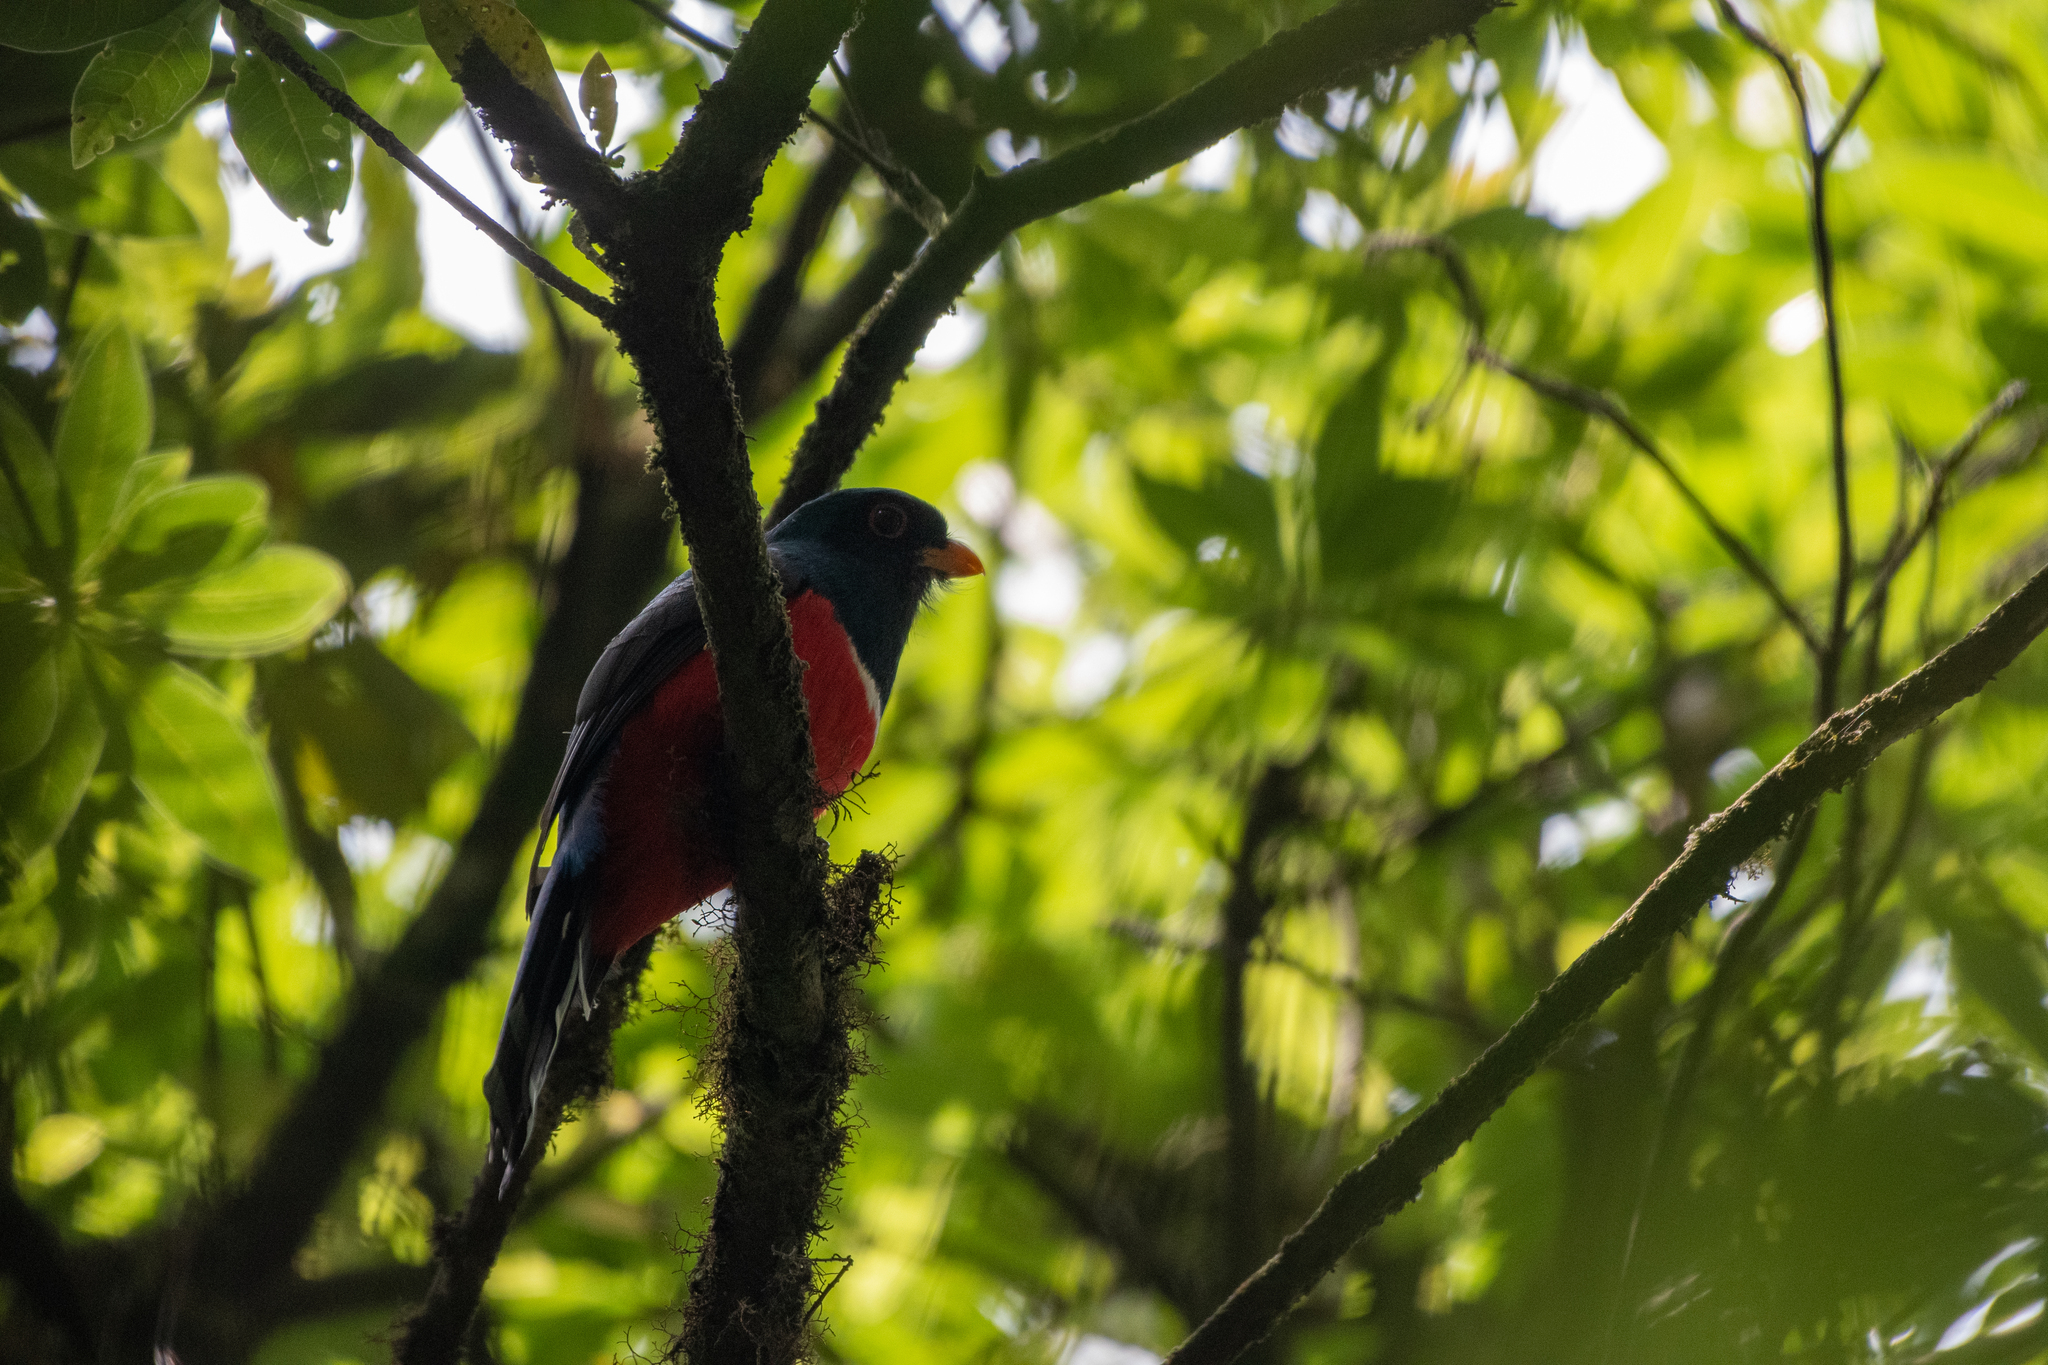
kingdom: Animalia
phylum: Chordata
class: Aves
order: Trogoniformes
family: Trogonidae
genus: Trogon
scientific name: Trogon mexicanus
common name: Mountain trogon
